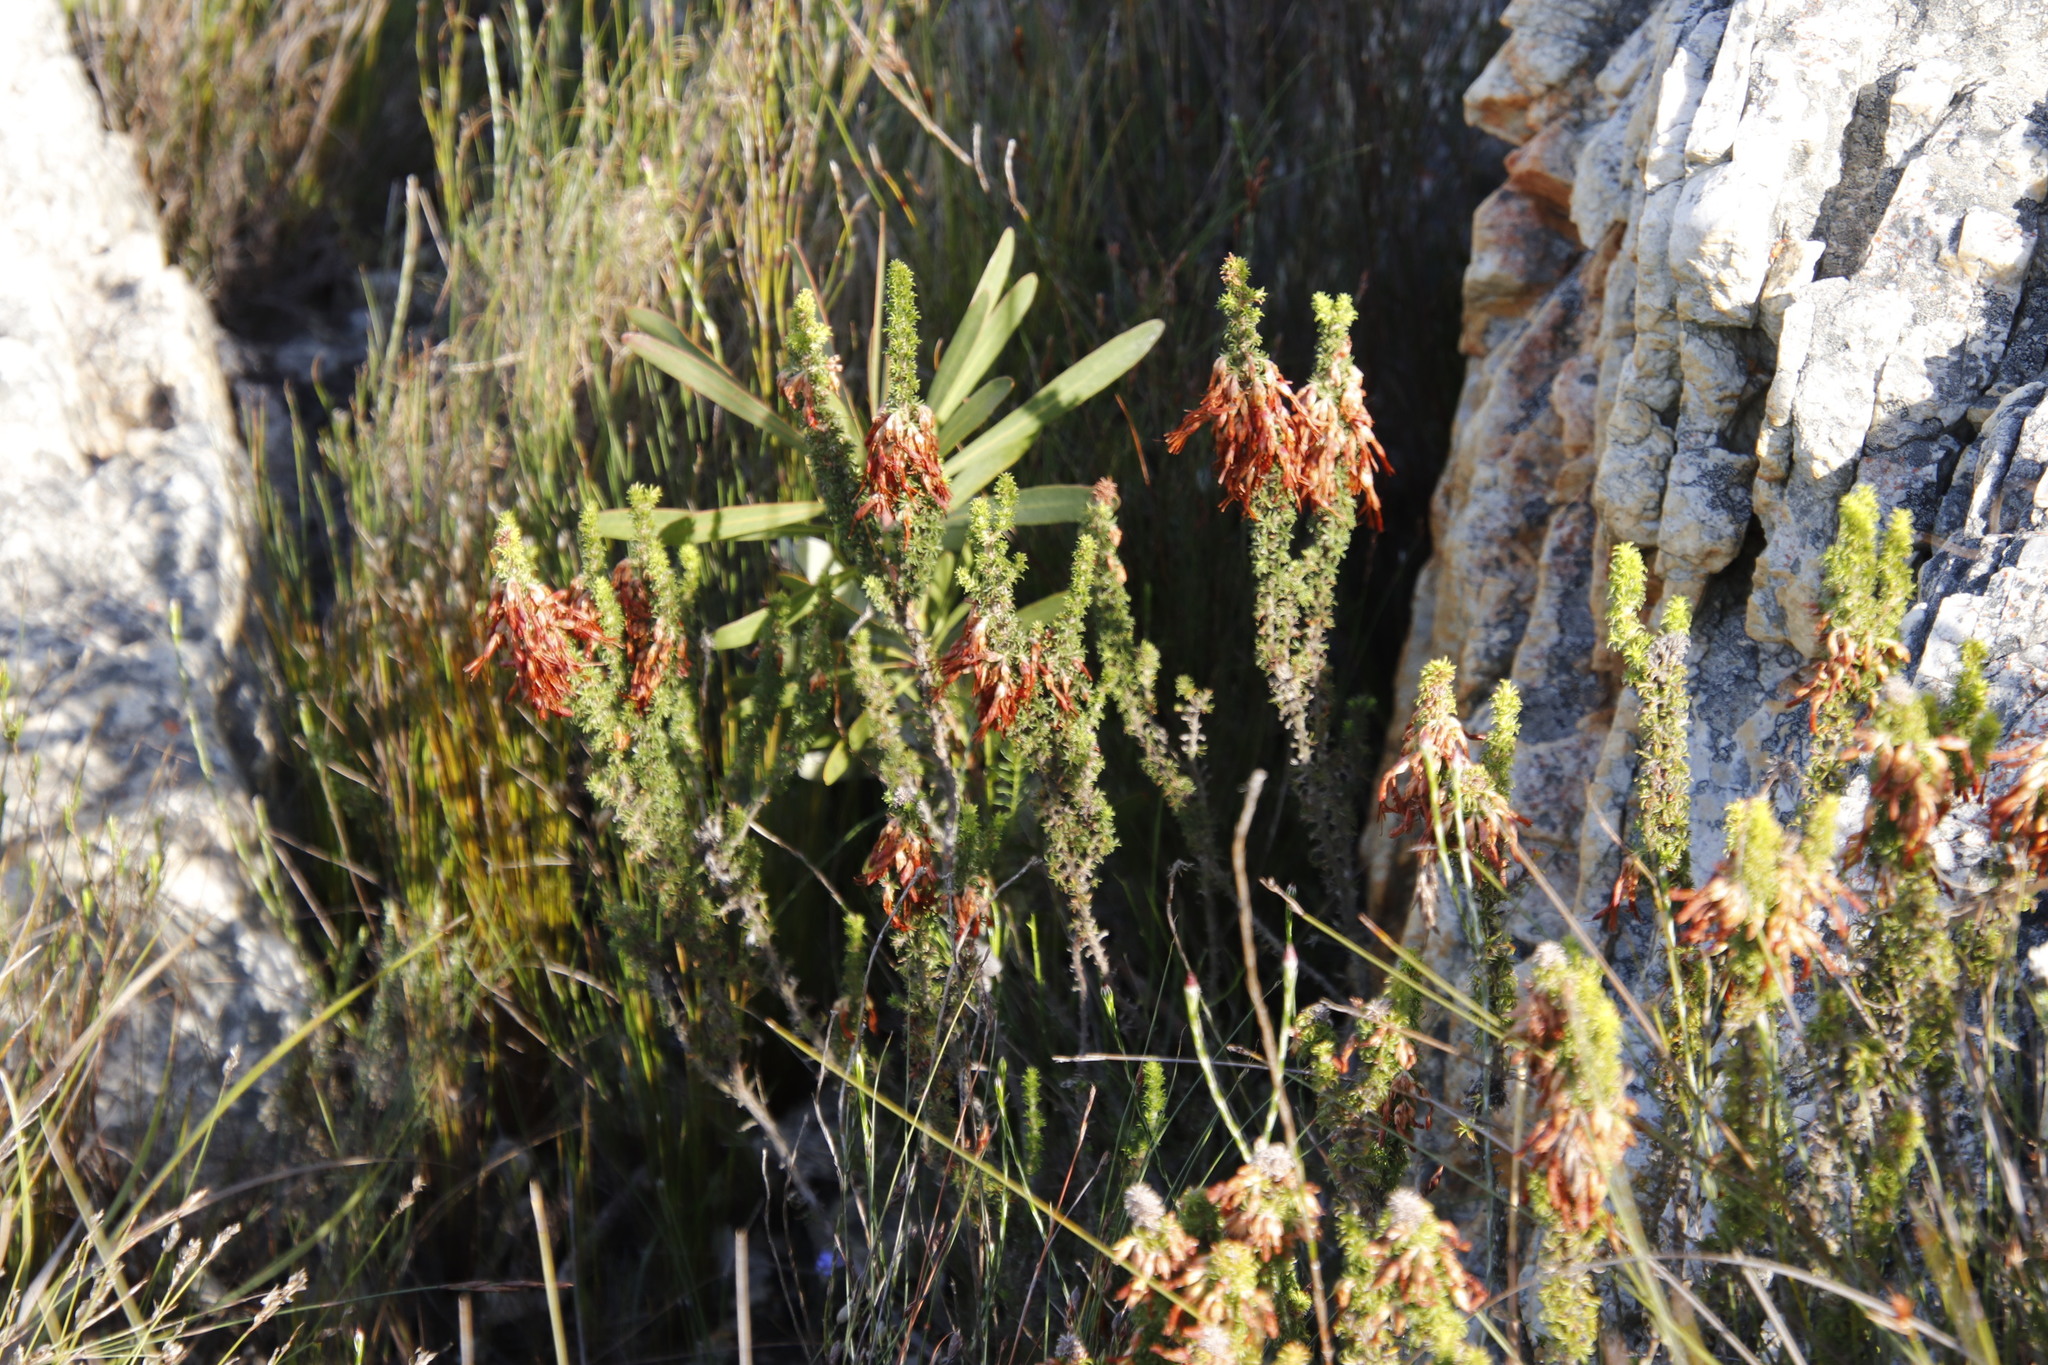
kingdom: Plantae
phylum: Tracheophyta
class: Magnoliopsida
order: Ericales
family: Ericaceae
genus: Erica
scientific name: Erica coccinea
